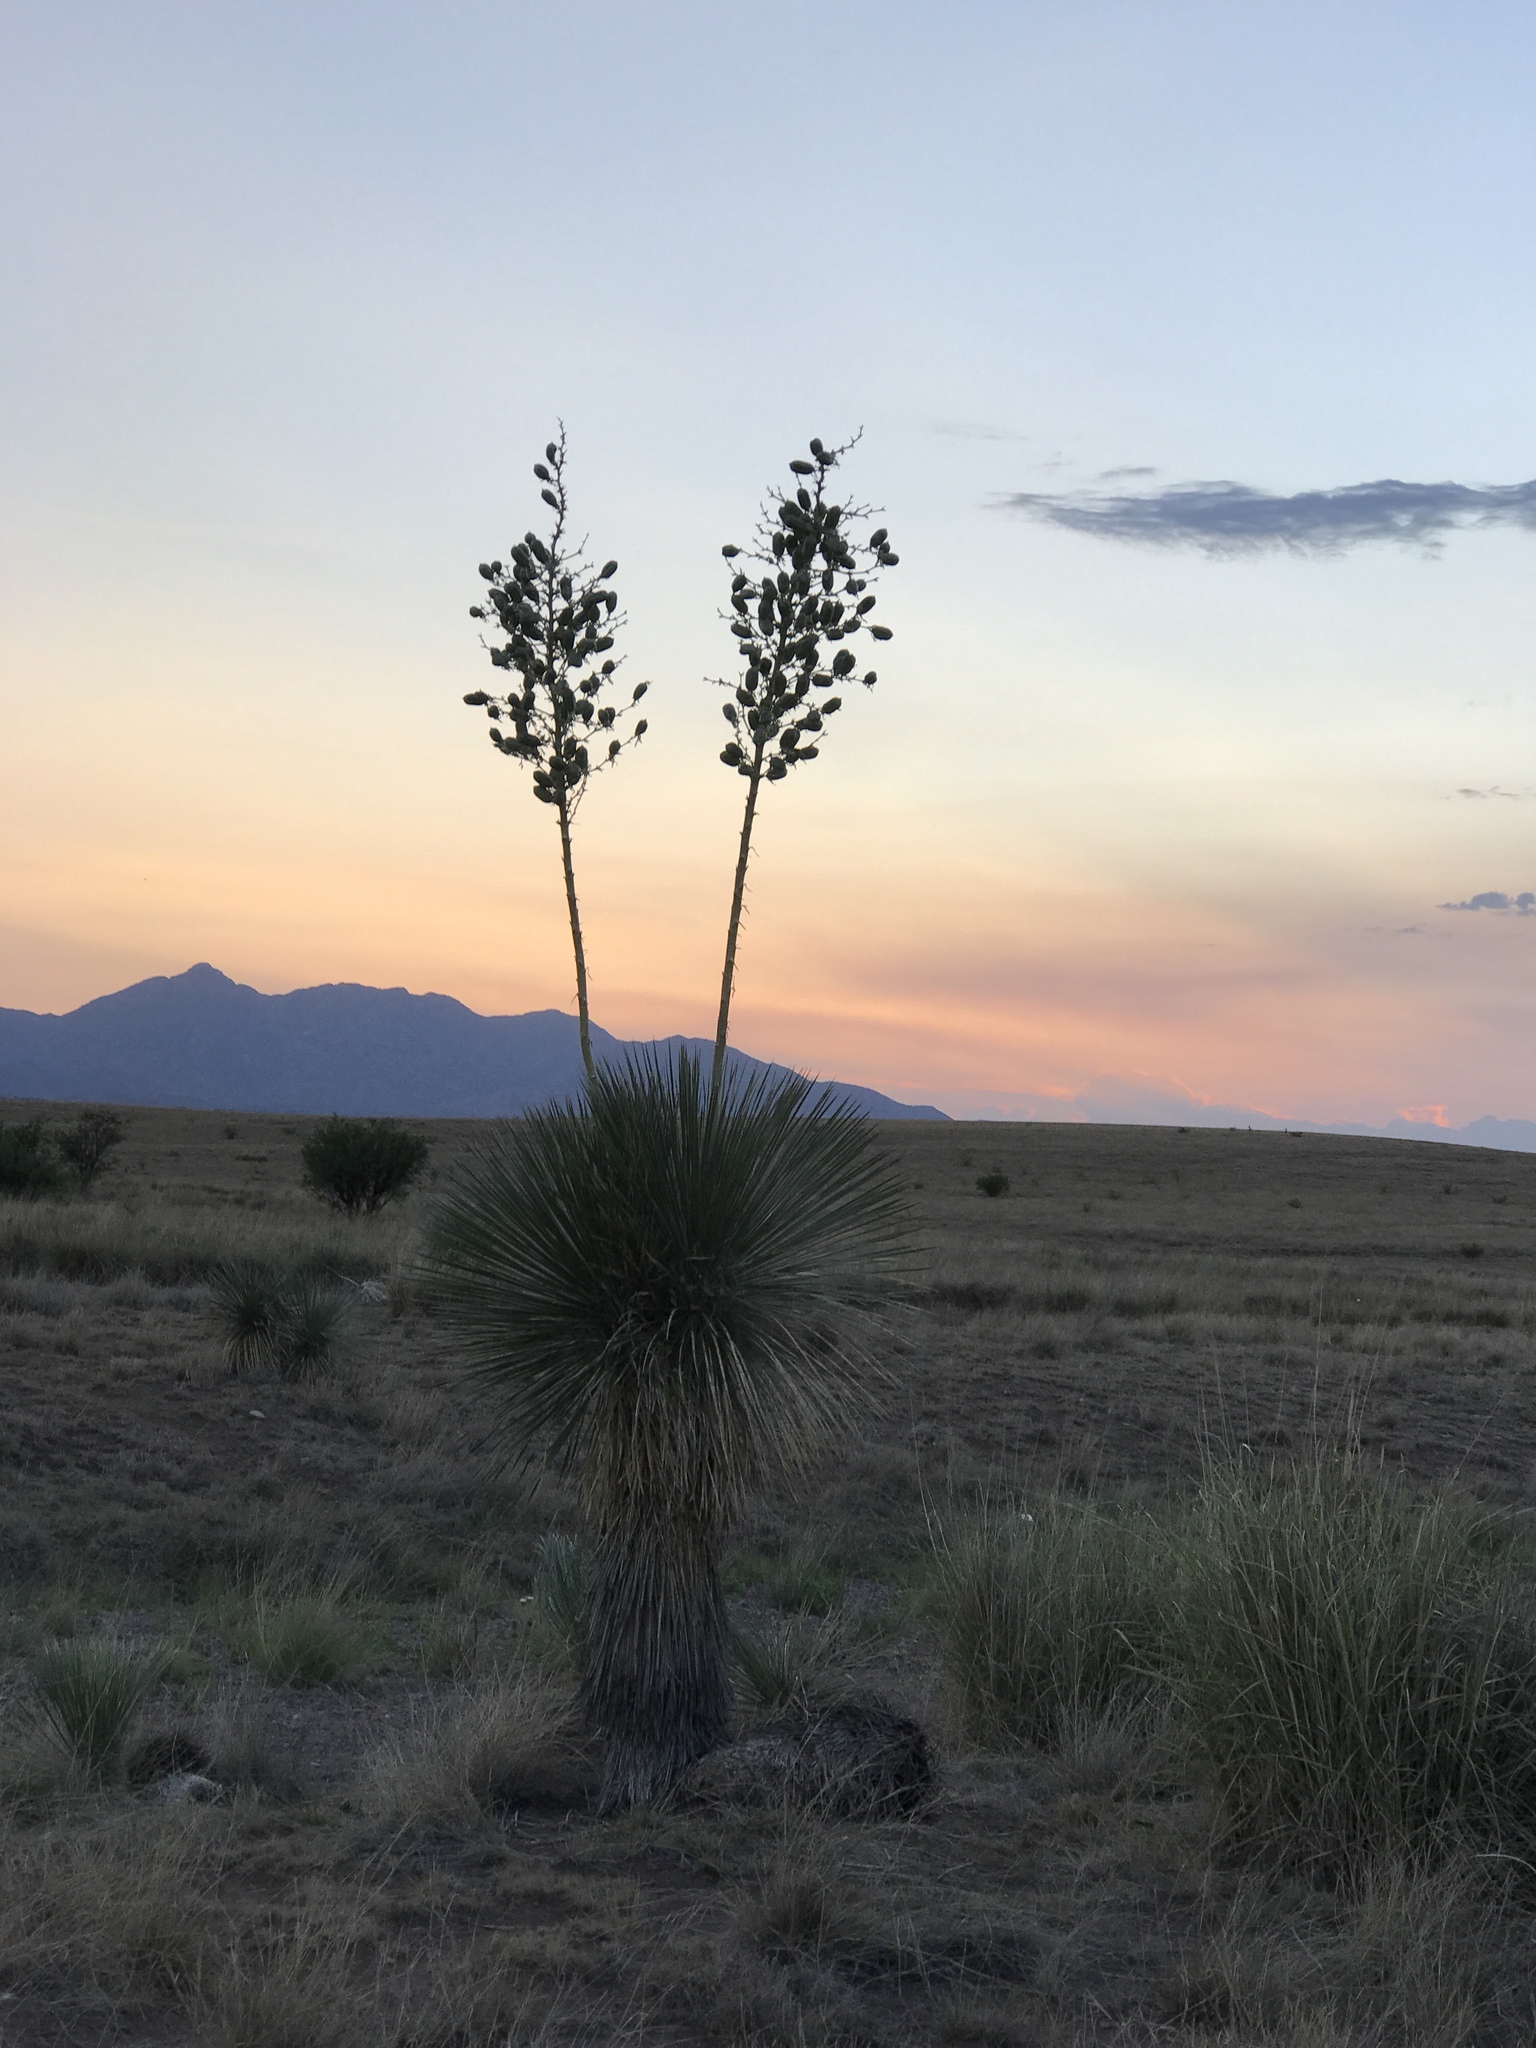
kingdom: Plantae
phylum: Tracheophyta
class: Liliopsida
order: Asparagales
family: Asparagaceae
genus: Yucca
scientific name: Yucca elata
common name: Palmella
